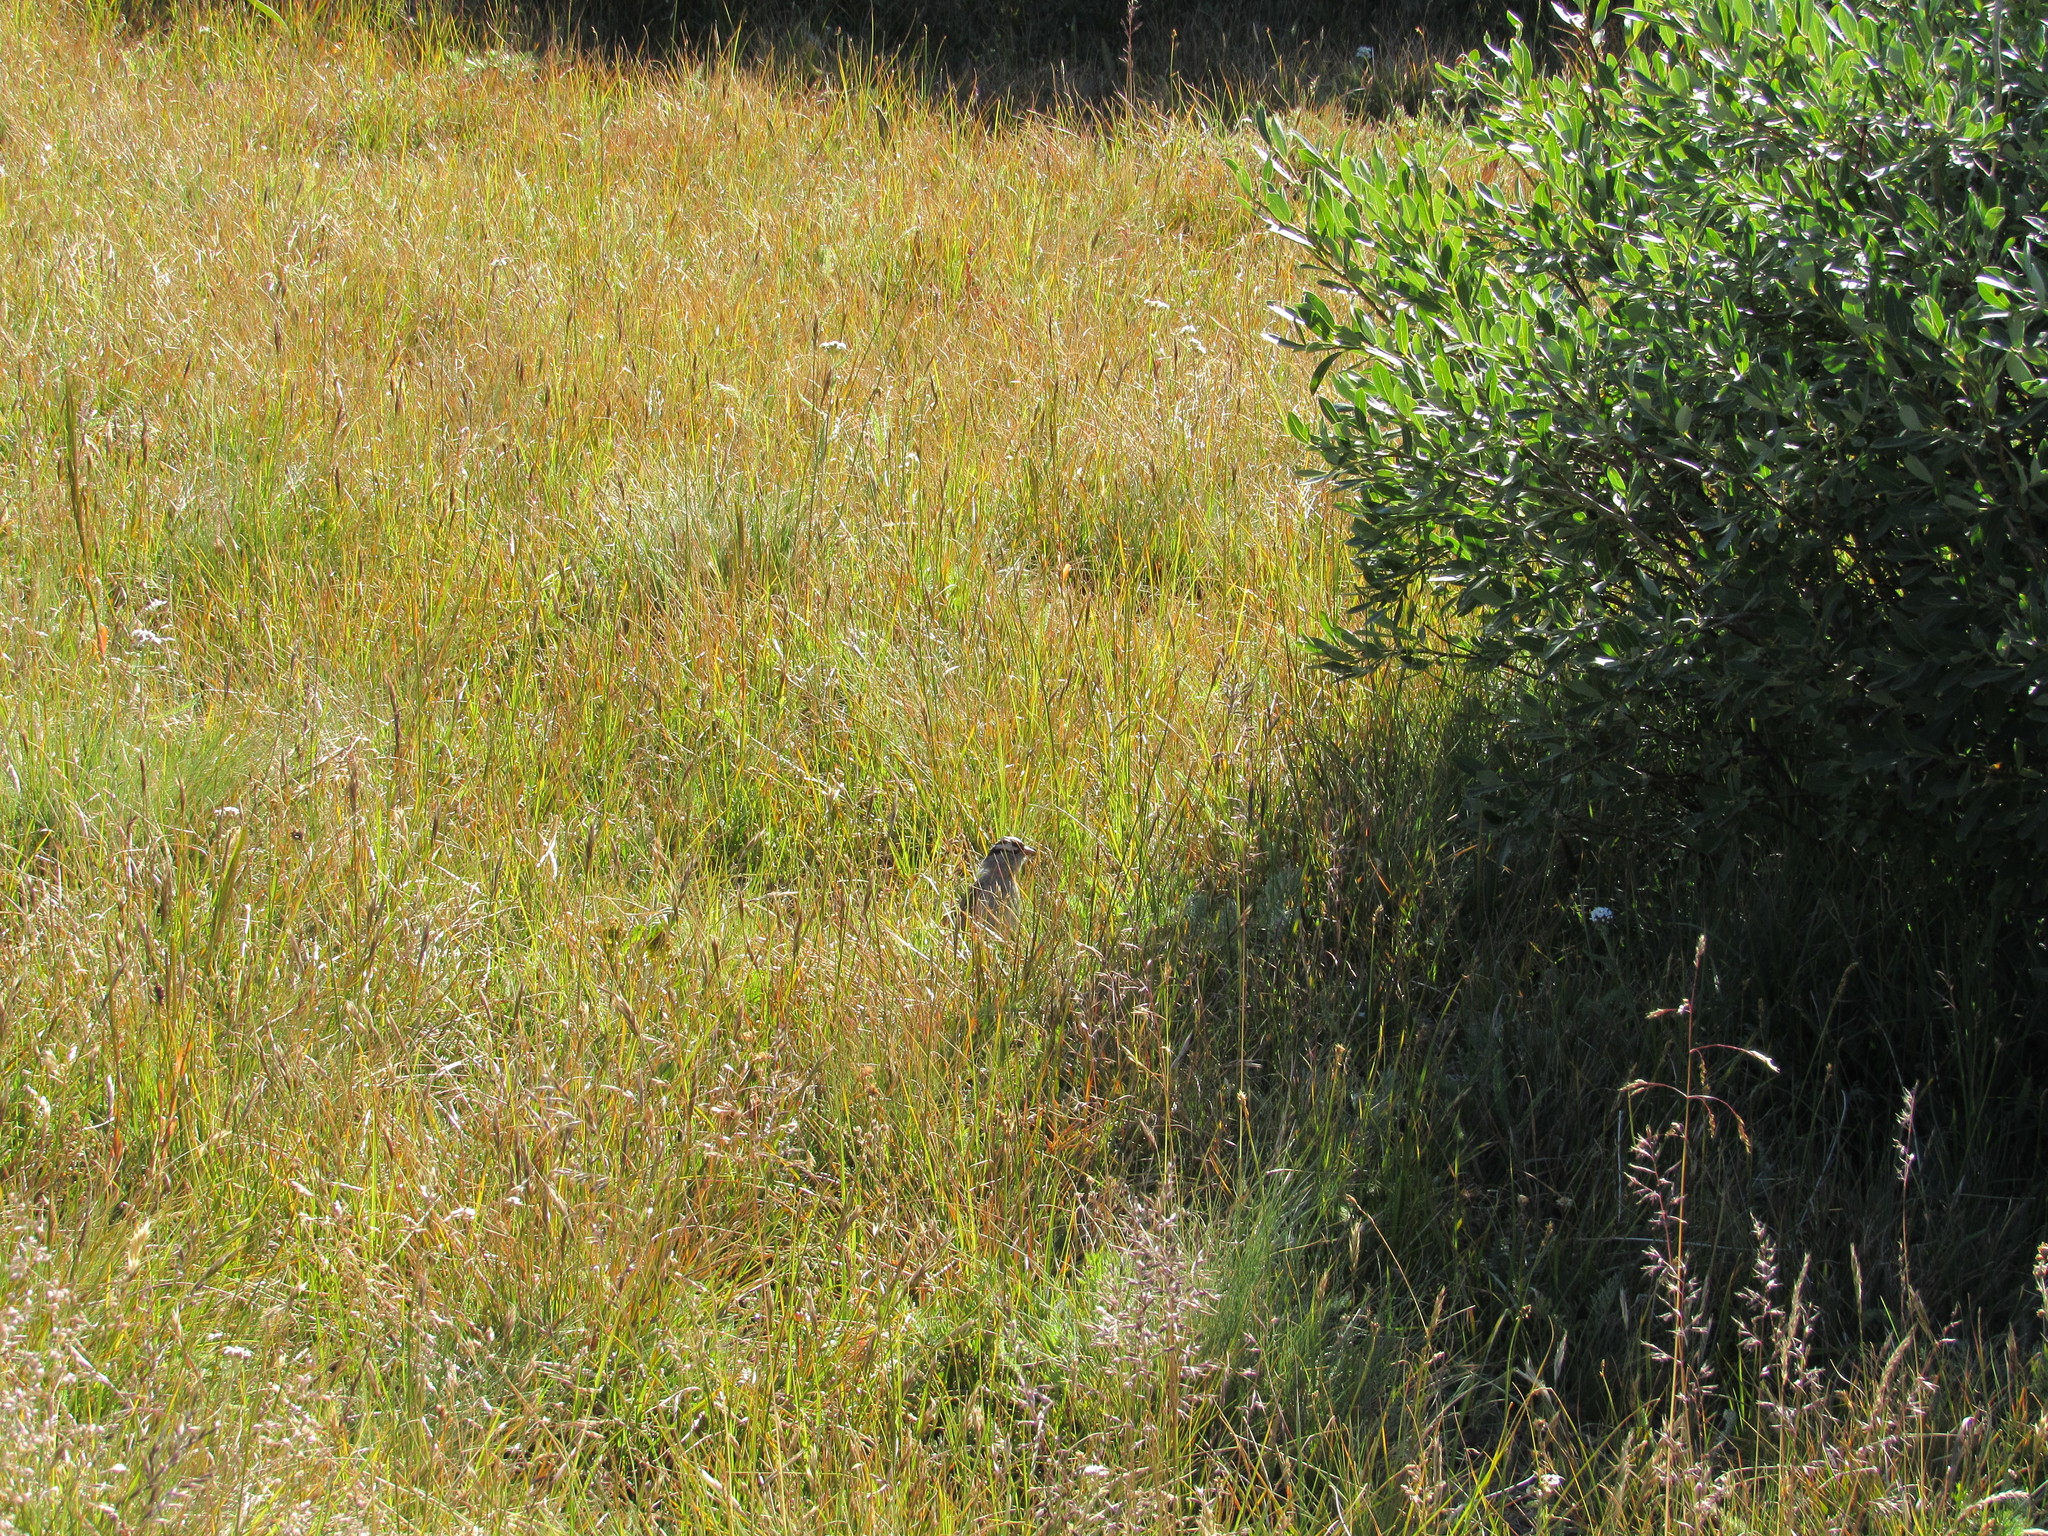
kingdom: Animalia
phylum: Chordata
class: Aves
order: Passeriformes
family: Passerellidae
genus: Zonotrichia
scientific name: Zonotrichia leucophrys
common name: White-crowned sparrow
